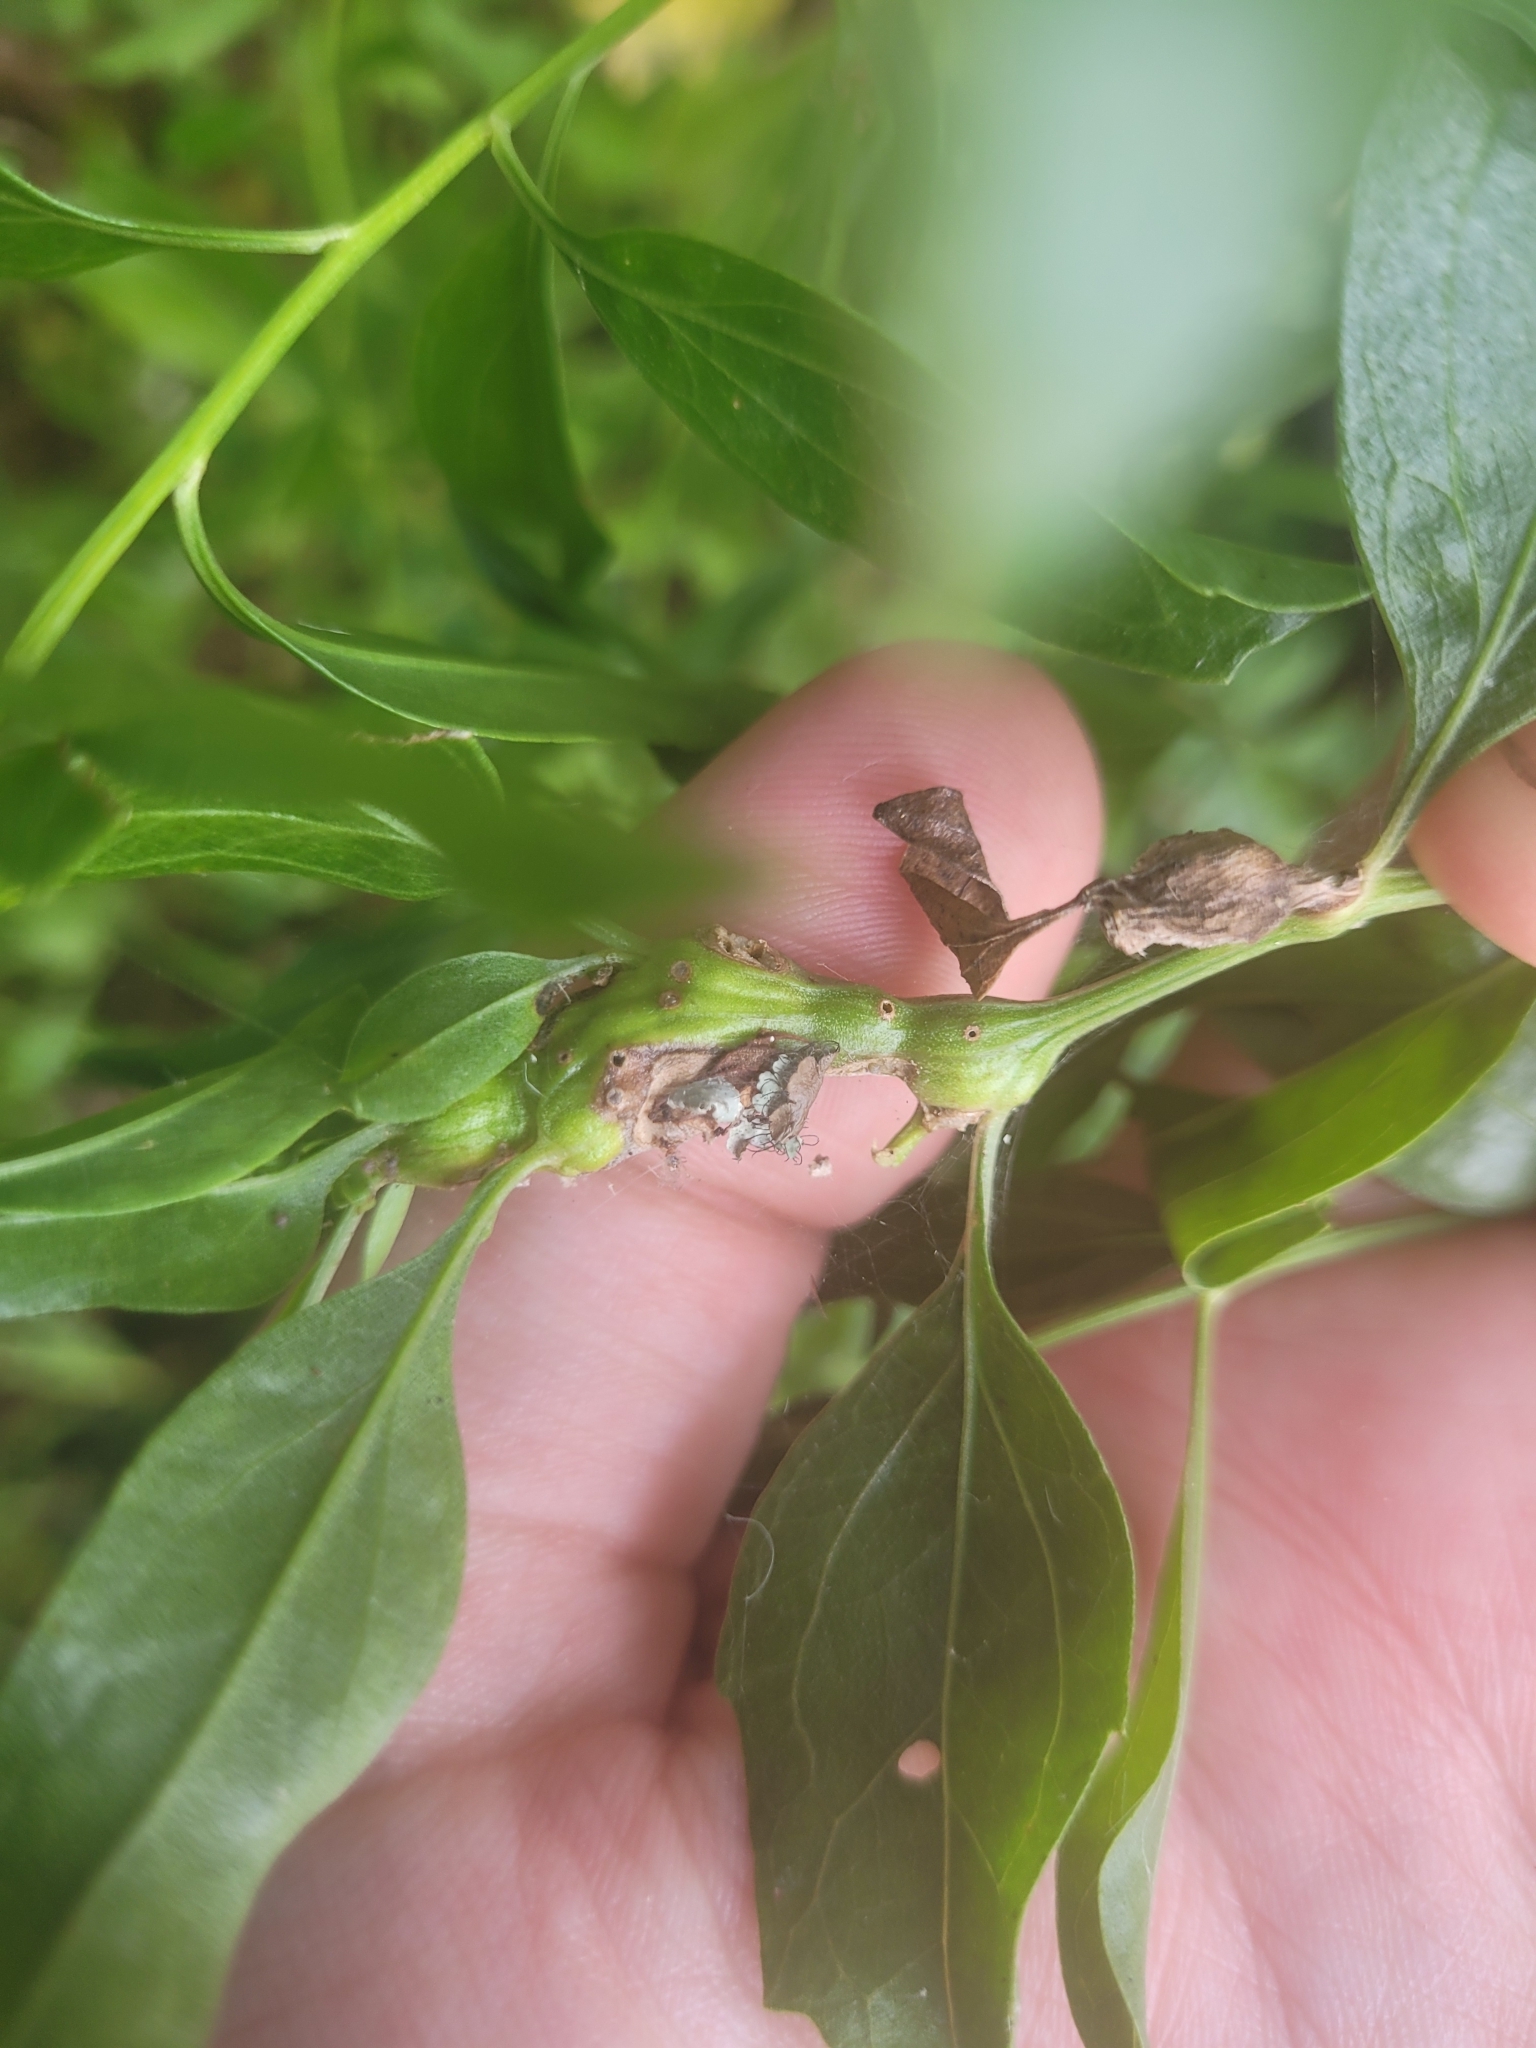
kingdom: Animalia
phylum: Arthropoda
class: Insecta
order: Diptera
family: Cecidomyiidae
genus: Neolasioptera
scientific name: Neolasioptera lathami
